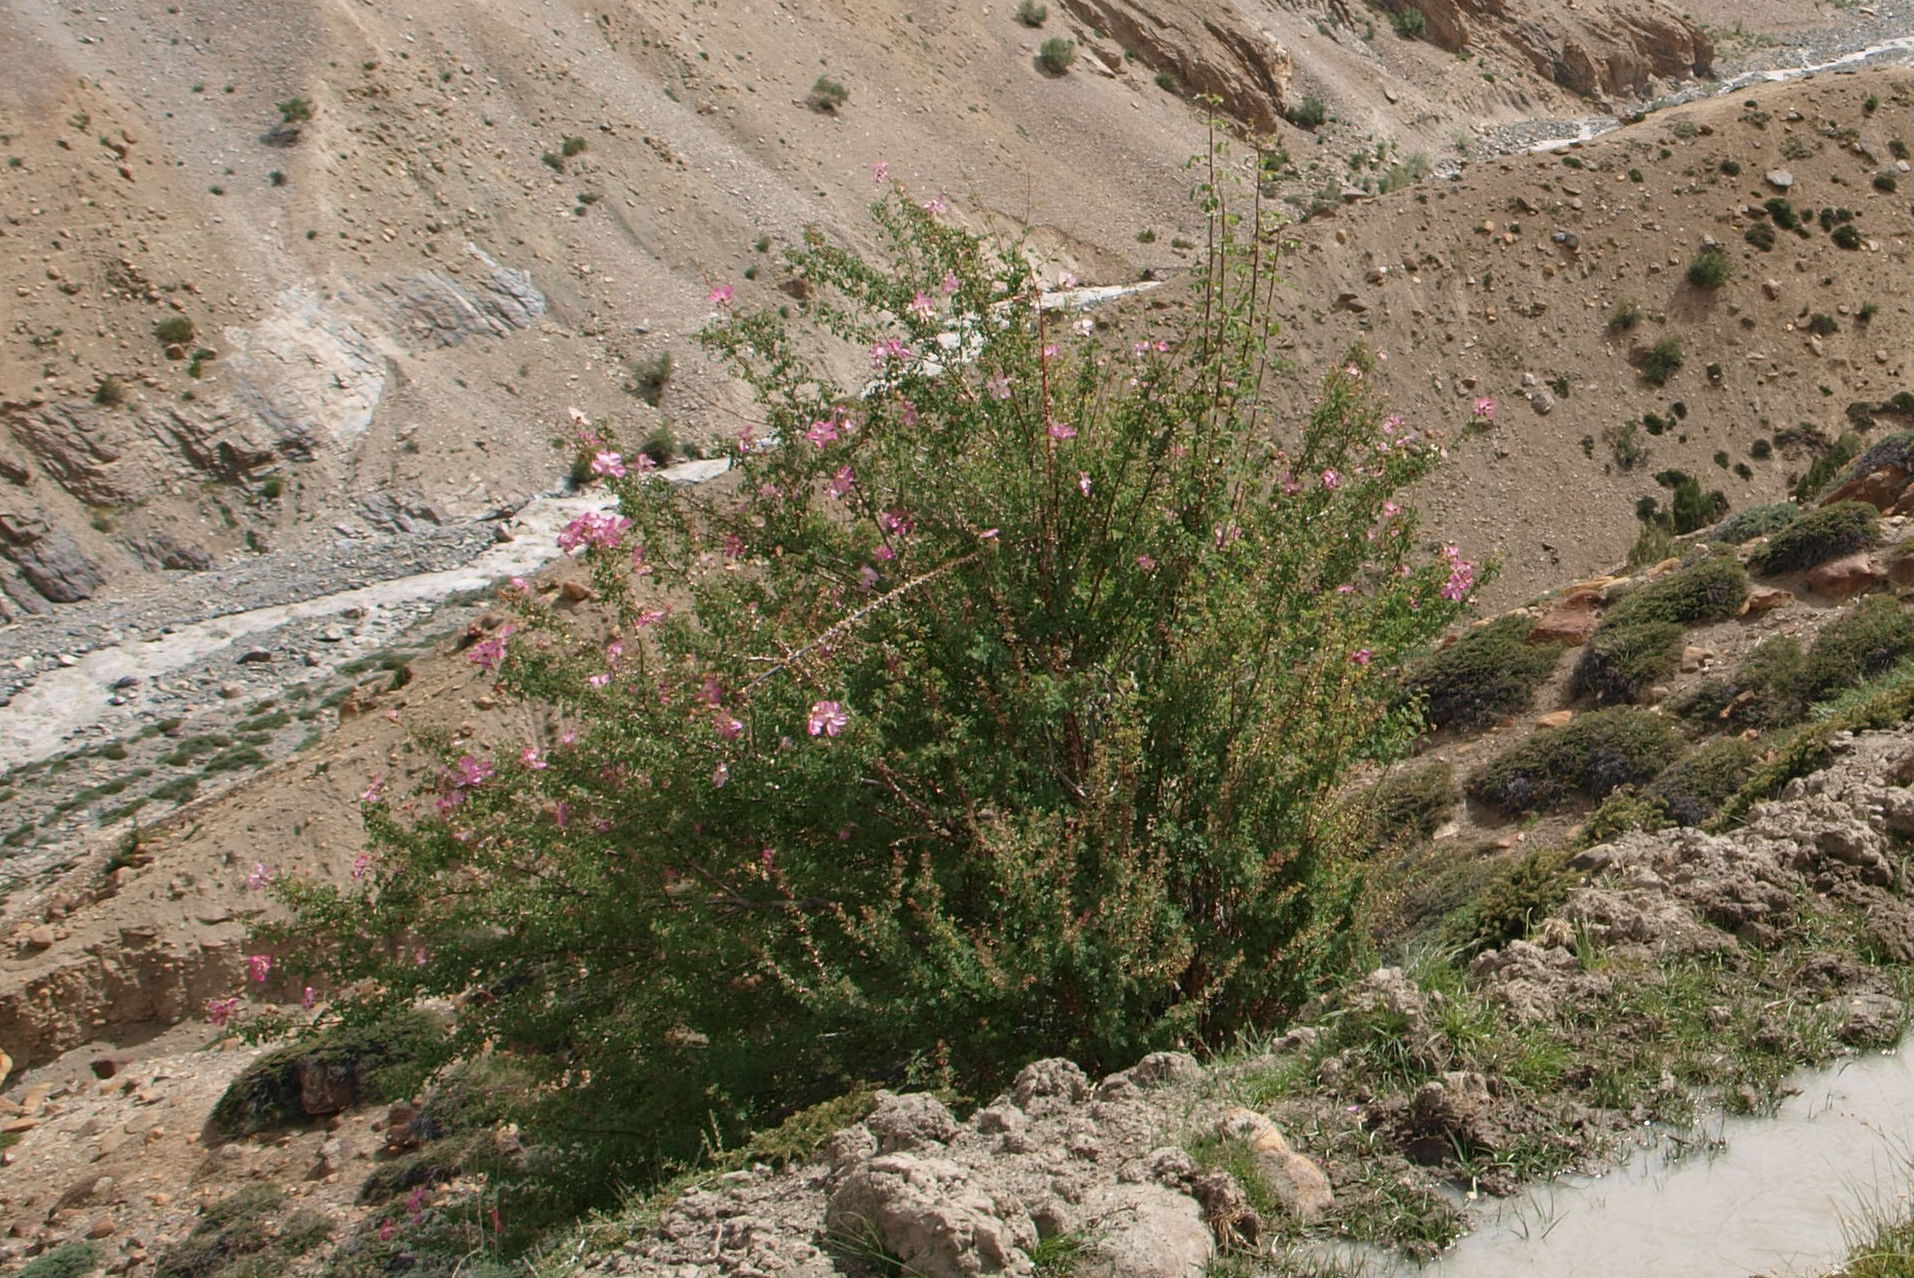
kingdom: Plantae
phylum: Tracheophyta
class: Magnoliopsida
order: Rosales
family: Rosaceae
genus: Rosa
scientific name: Rosa webbiana
